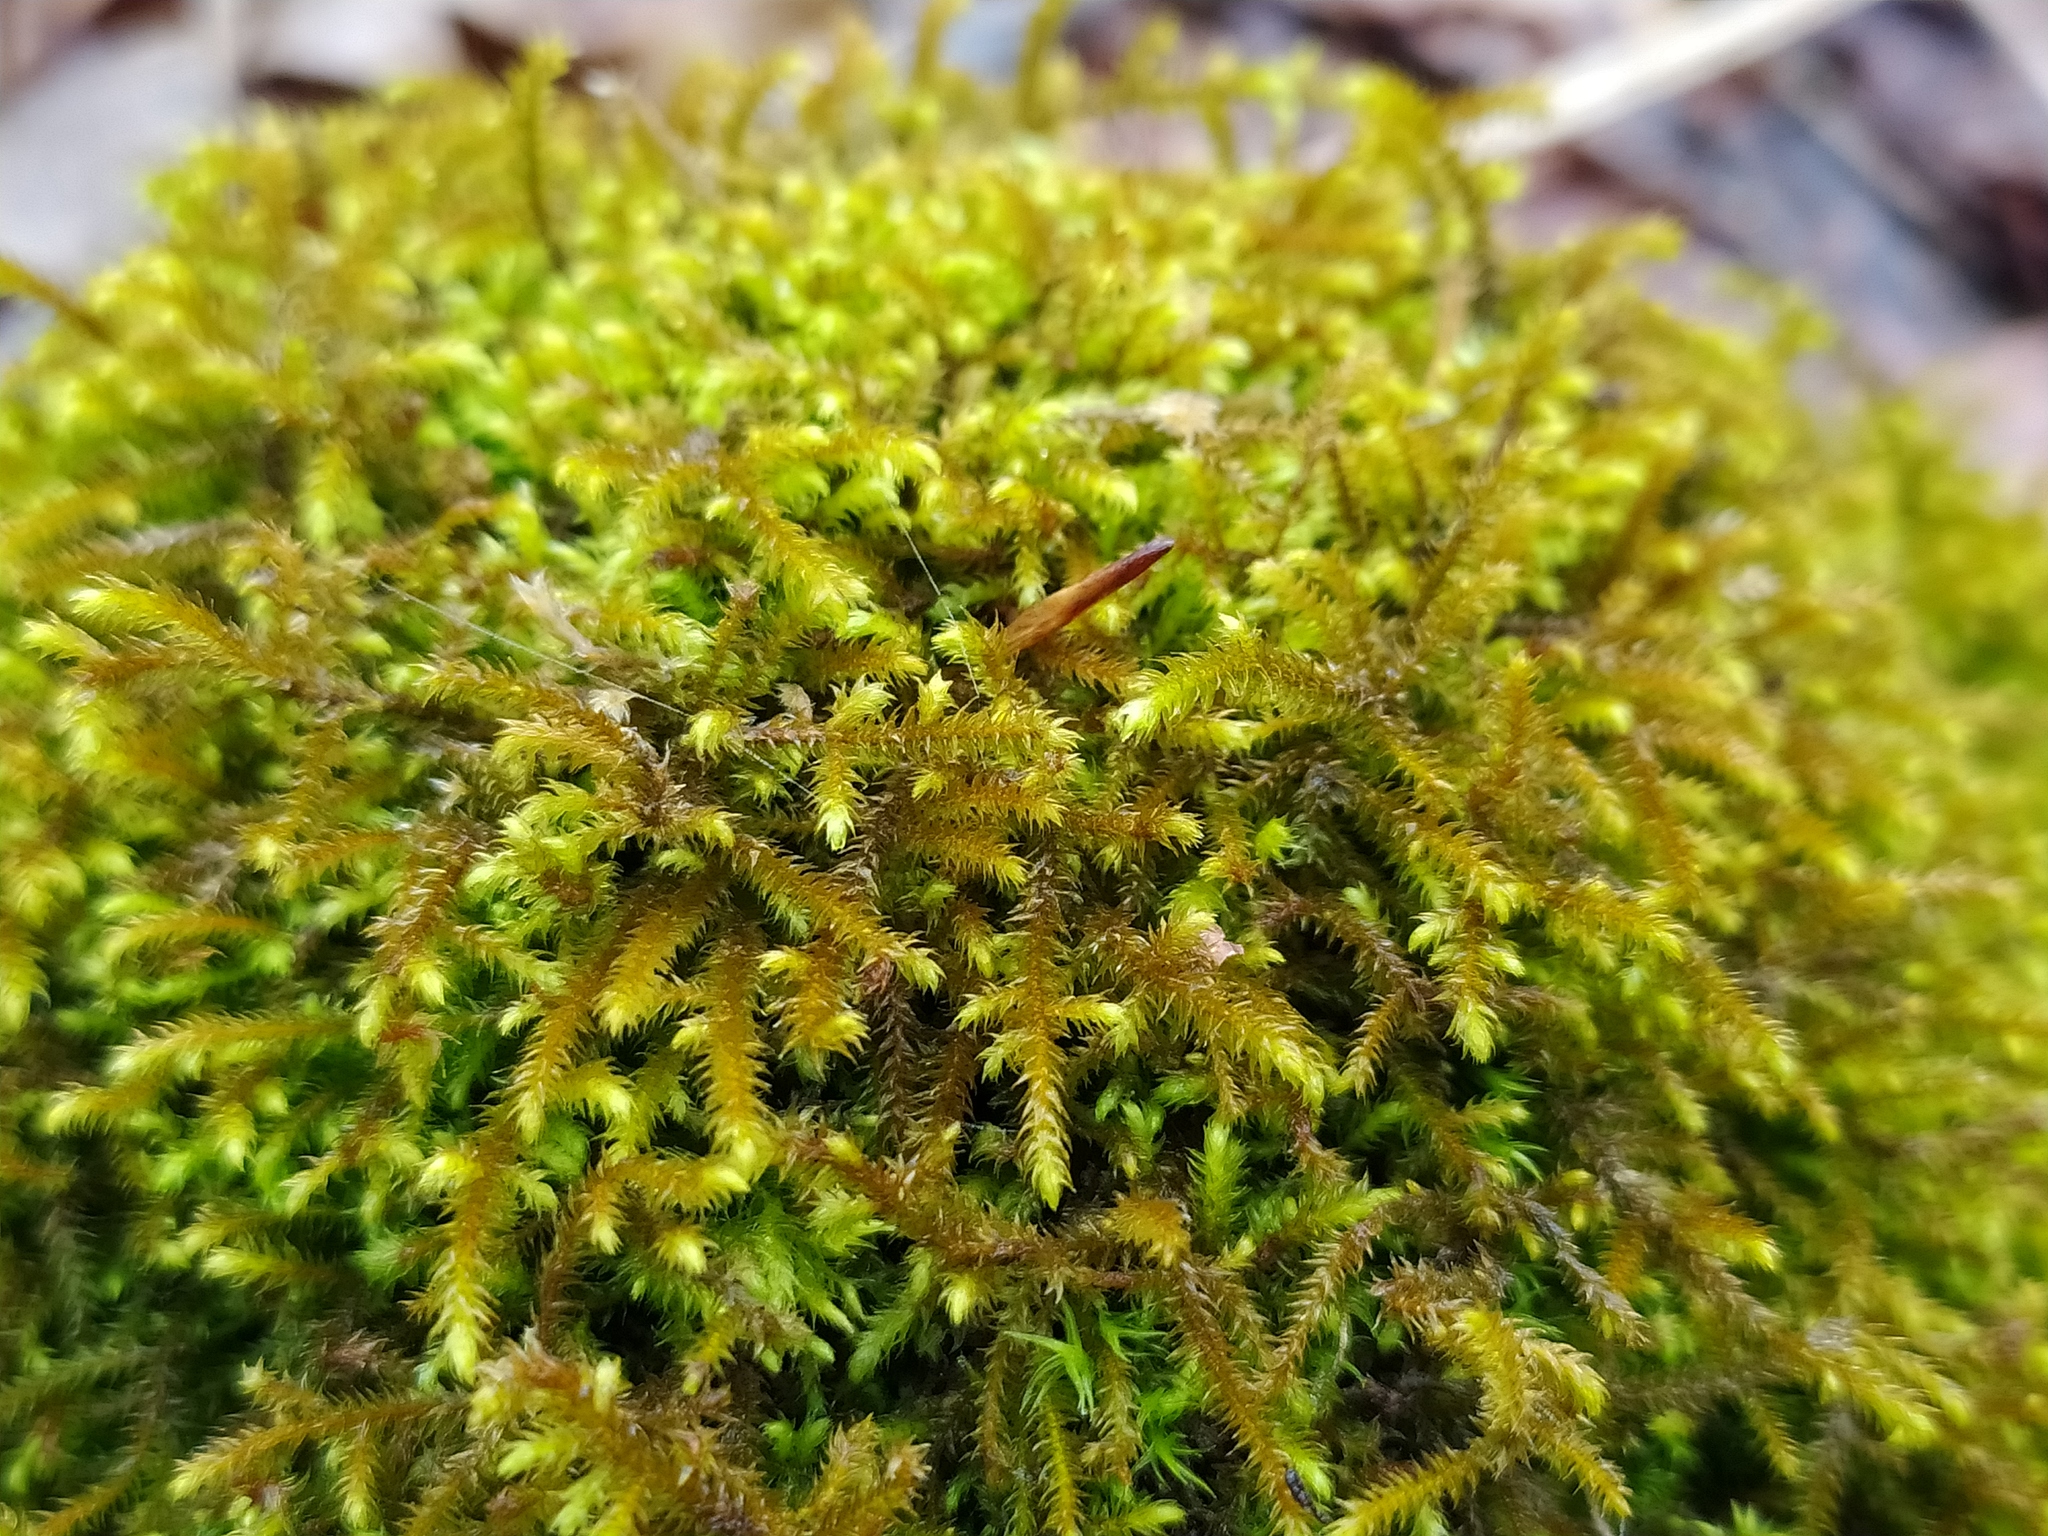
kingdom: Plantae
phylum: Bryophyta
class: Bryopsida
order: Hypnales
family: Pseudoleskeaceae
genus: Lescuraea
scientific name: Lescuraea incurvata
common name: Brown mountain leskea
